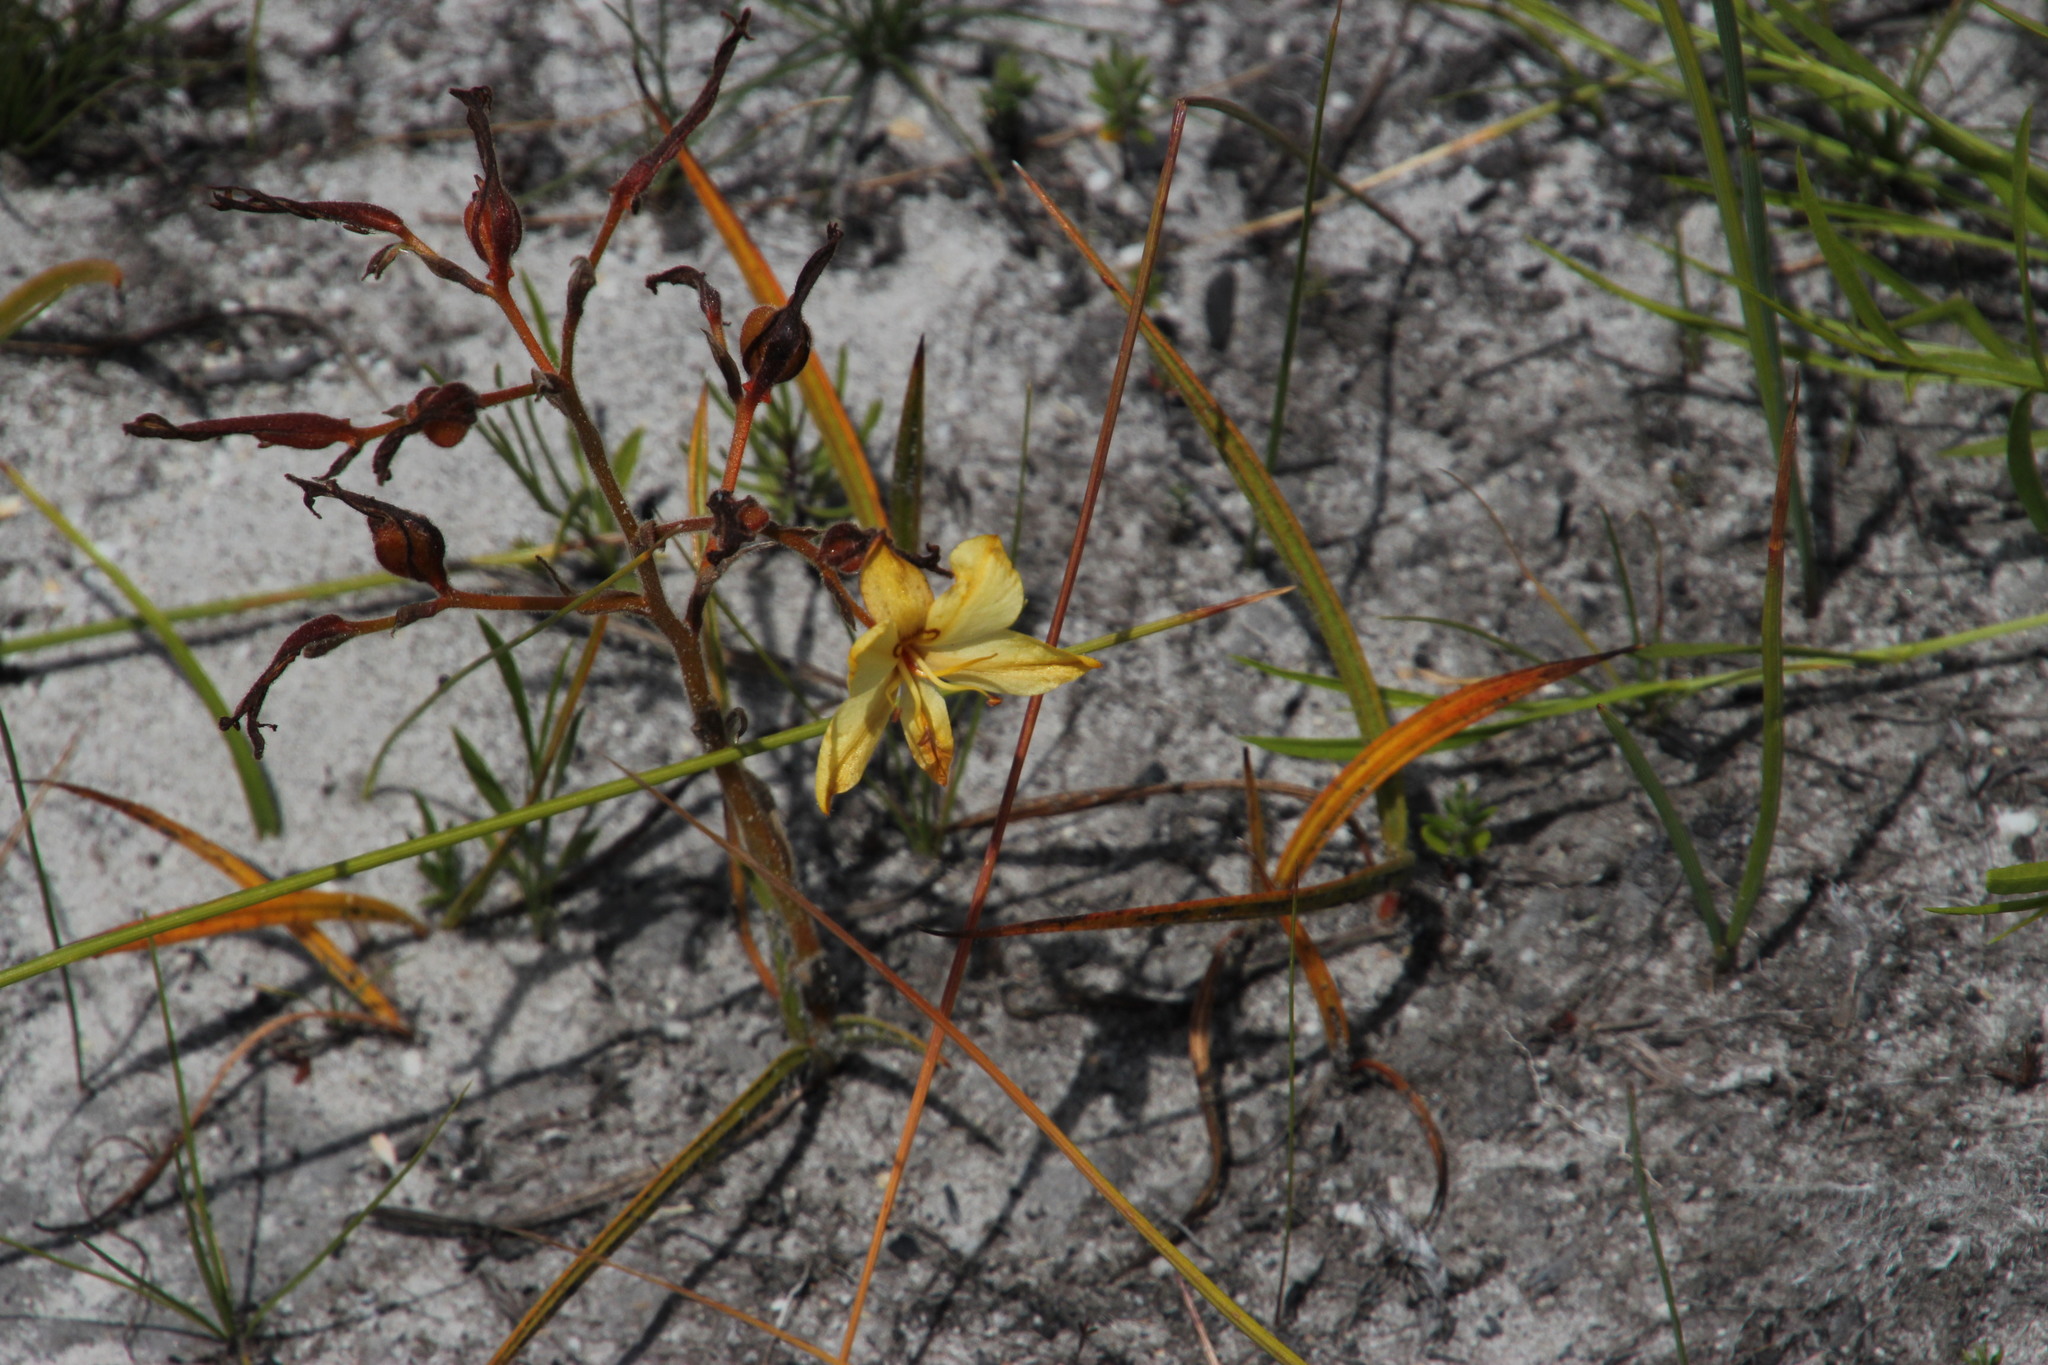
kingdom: Plantae
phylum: Tracheophyta
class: Liliopsida
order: Commelinales
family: Haemodoraceae
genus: Wachendorfia
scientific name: Wachendorfia paniculata
